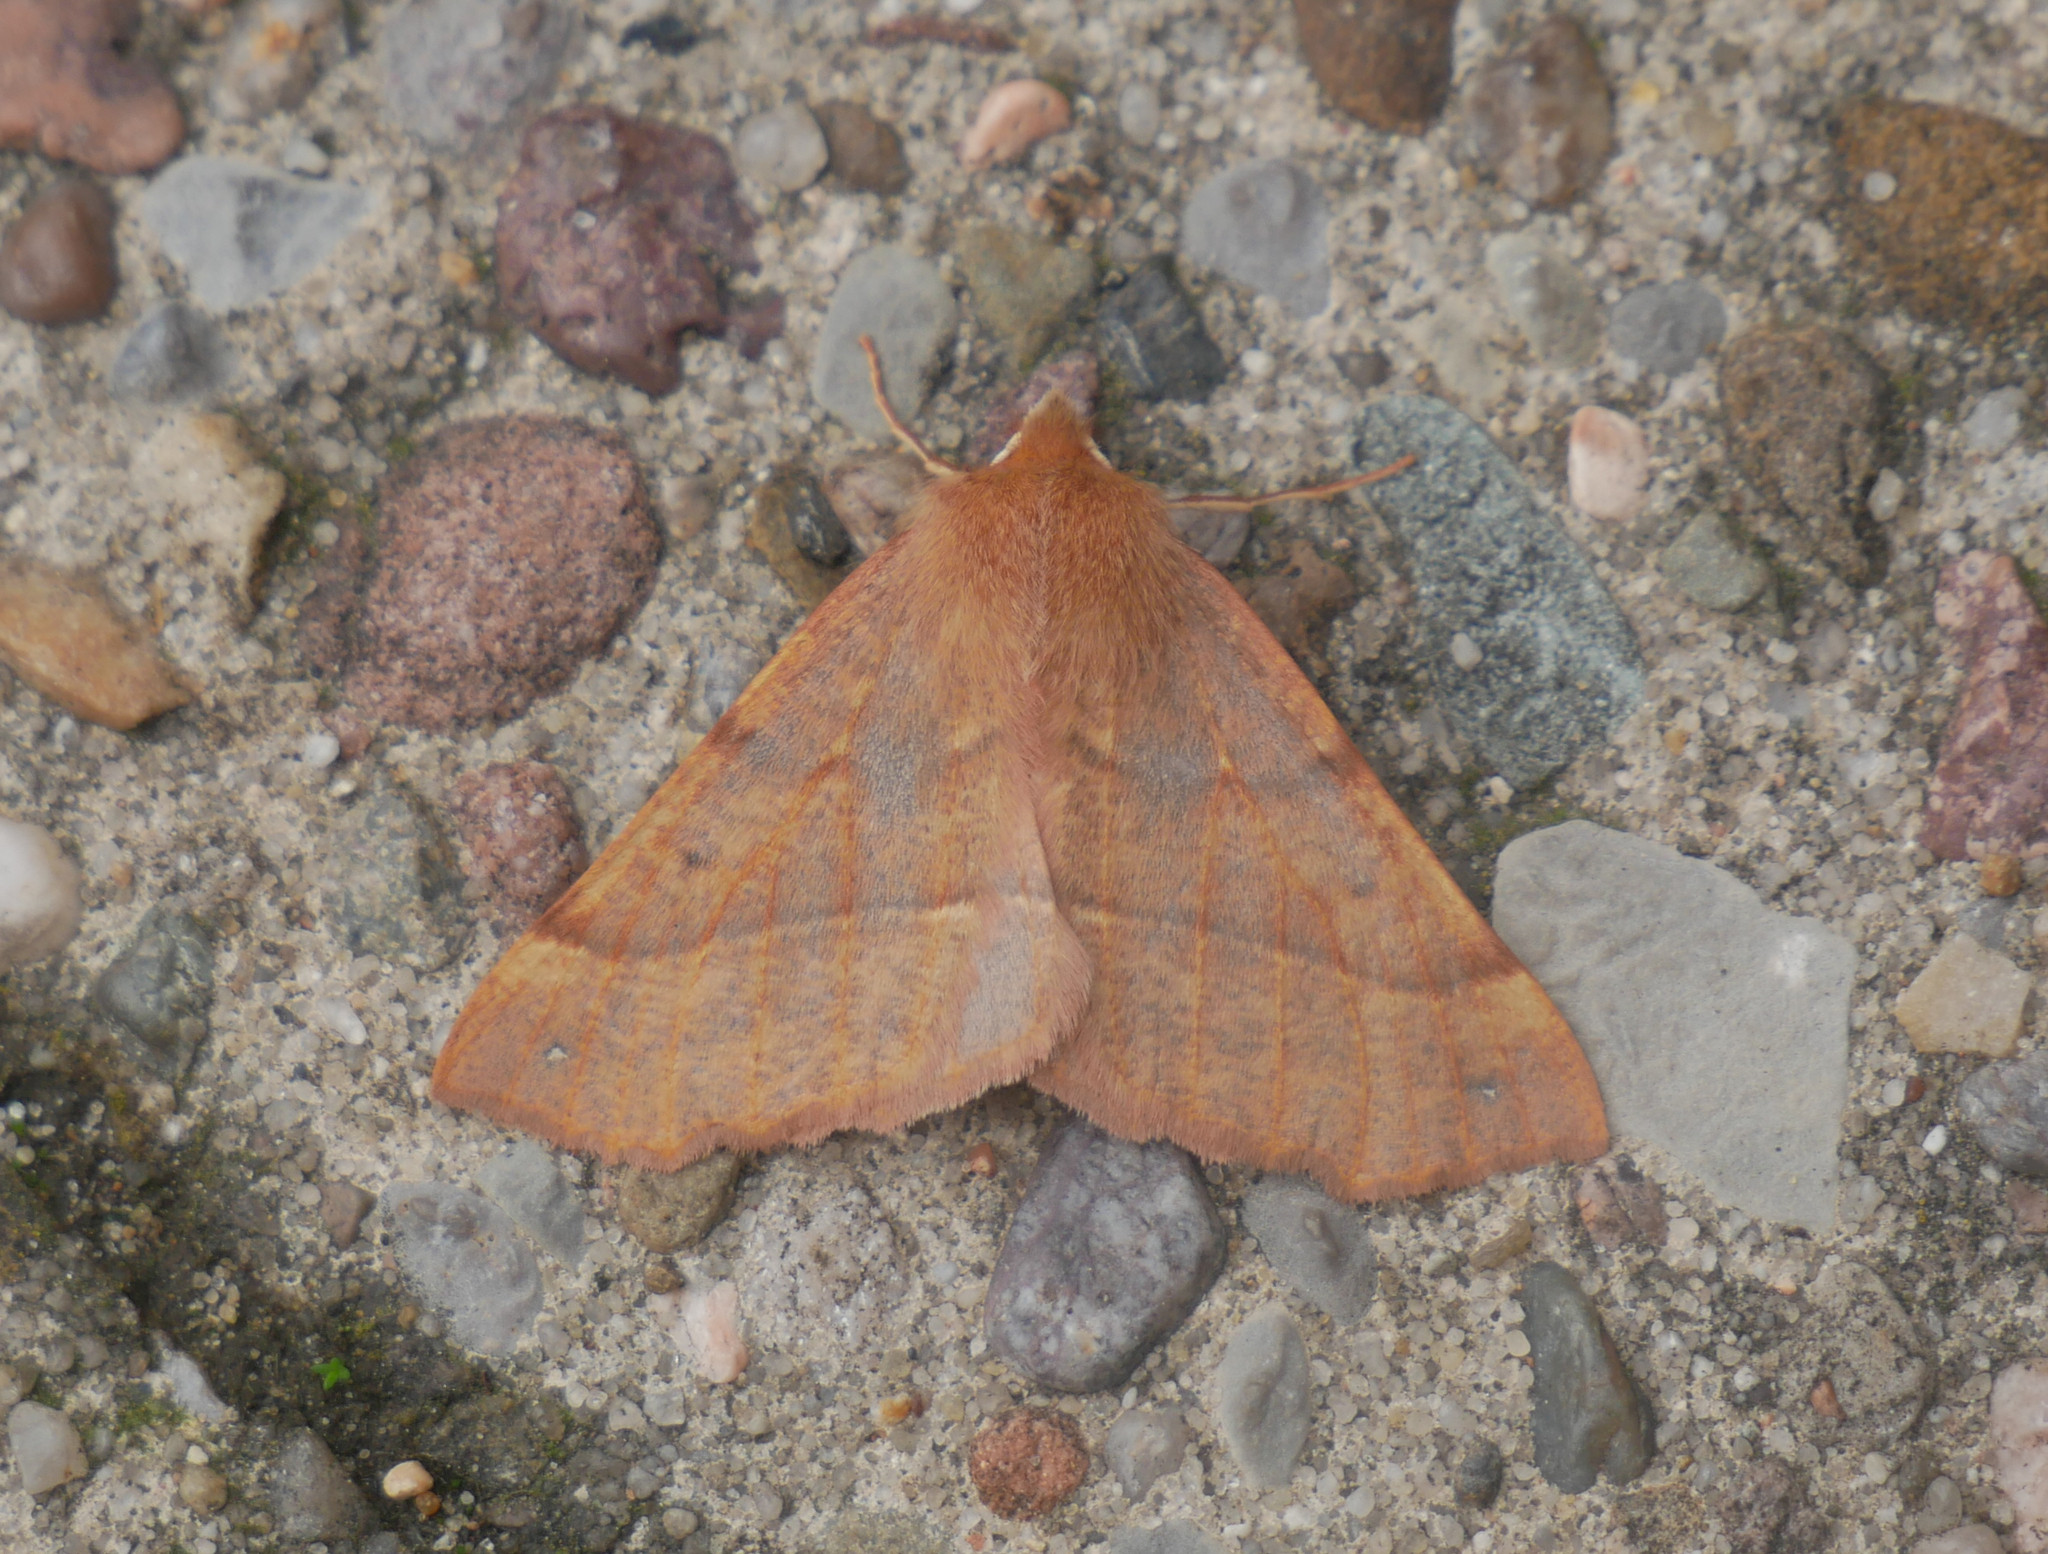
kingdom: Animalia
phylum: Arthropoda
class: Insecta
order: Lepidoptera
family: Geometridae
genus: Colotois
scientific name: Colotois pennaria
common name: Feathered thorn
